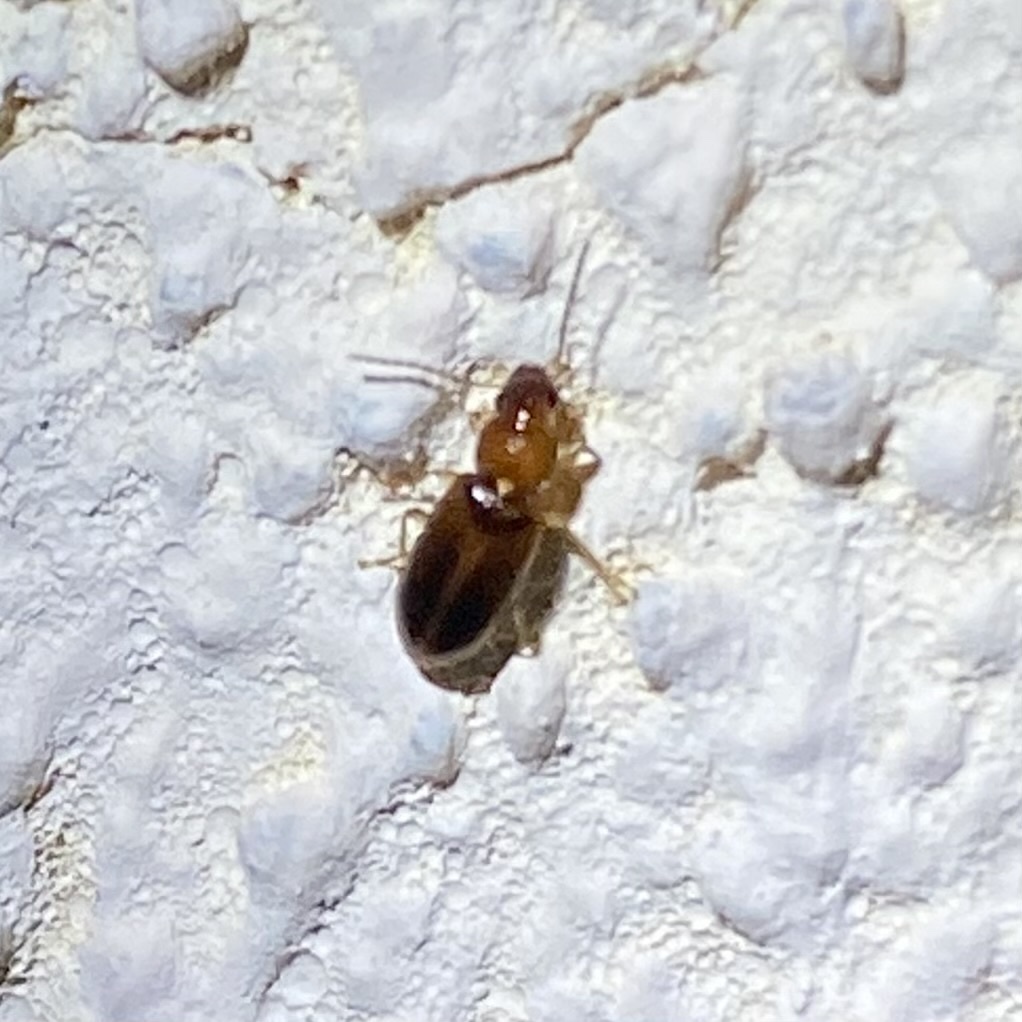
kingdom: Animalia
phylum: Arthropoda
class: Insecta
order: Coleoptera
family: Carabidae
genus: Bradycellus
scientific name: Bradycellus
